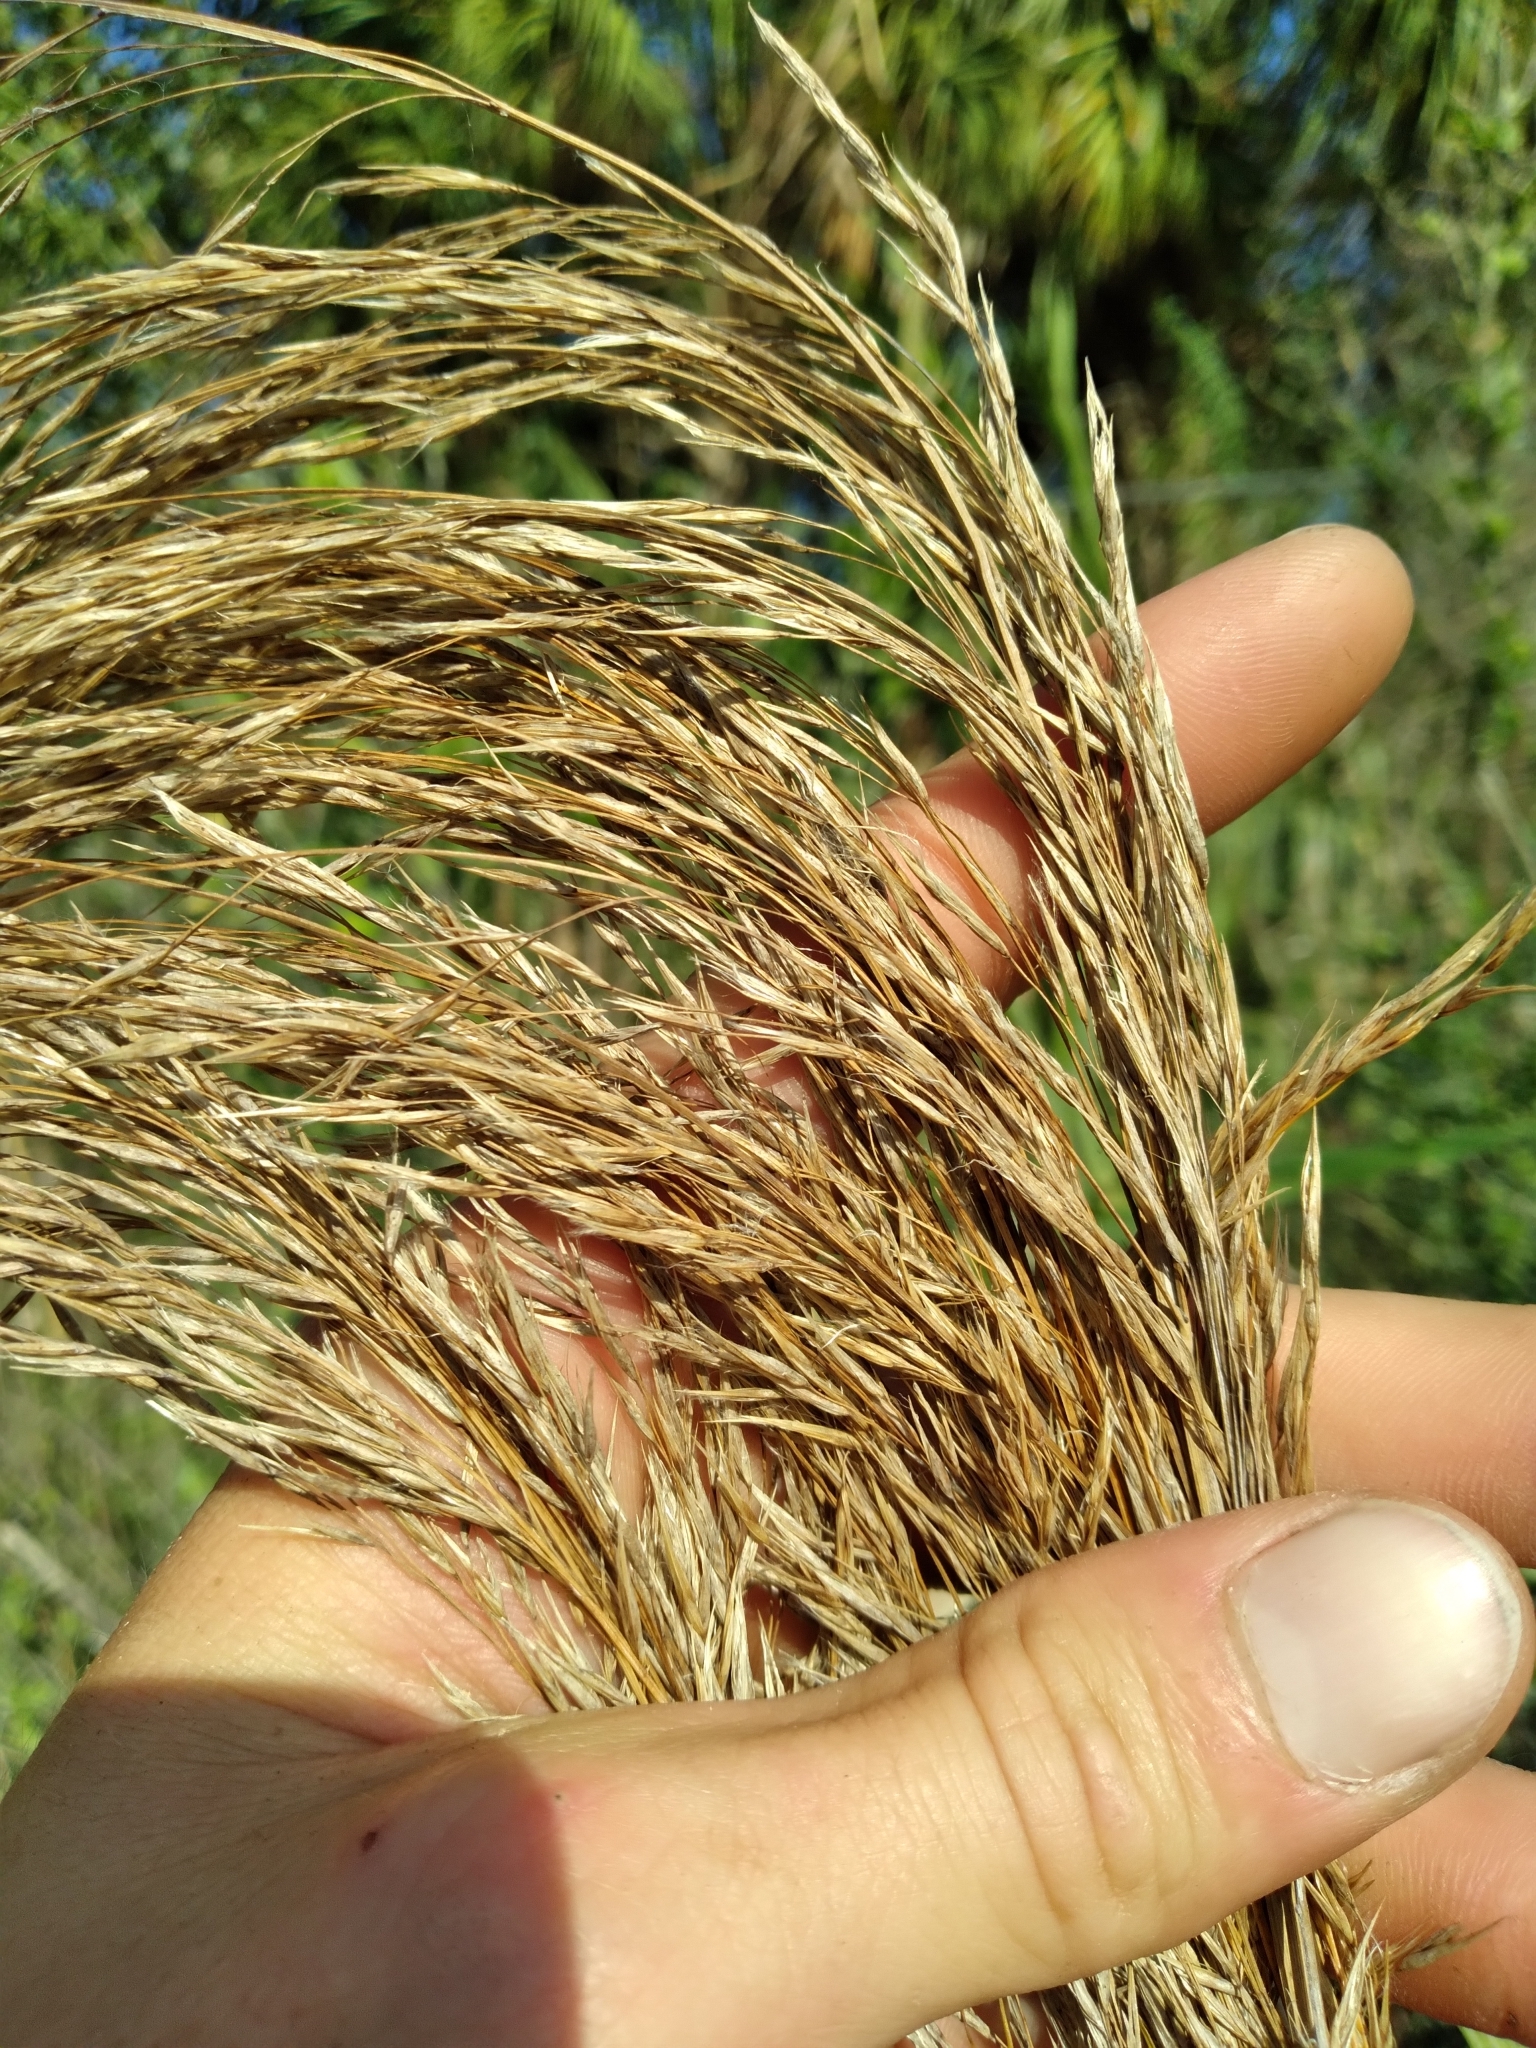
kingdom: Plantae
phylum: Tracheophyta
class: Liliopsida
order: Poales
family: Poaceae
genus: Phragmites
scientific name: Phragmites australis
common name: Common reed
